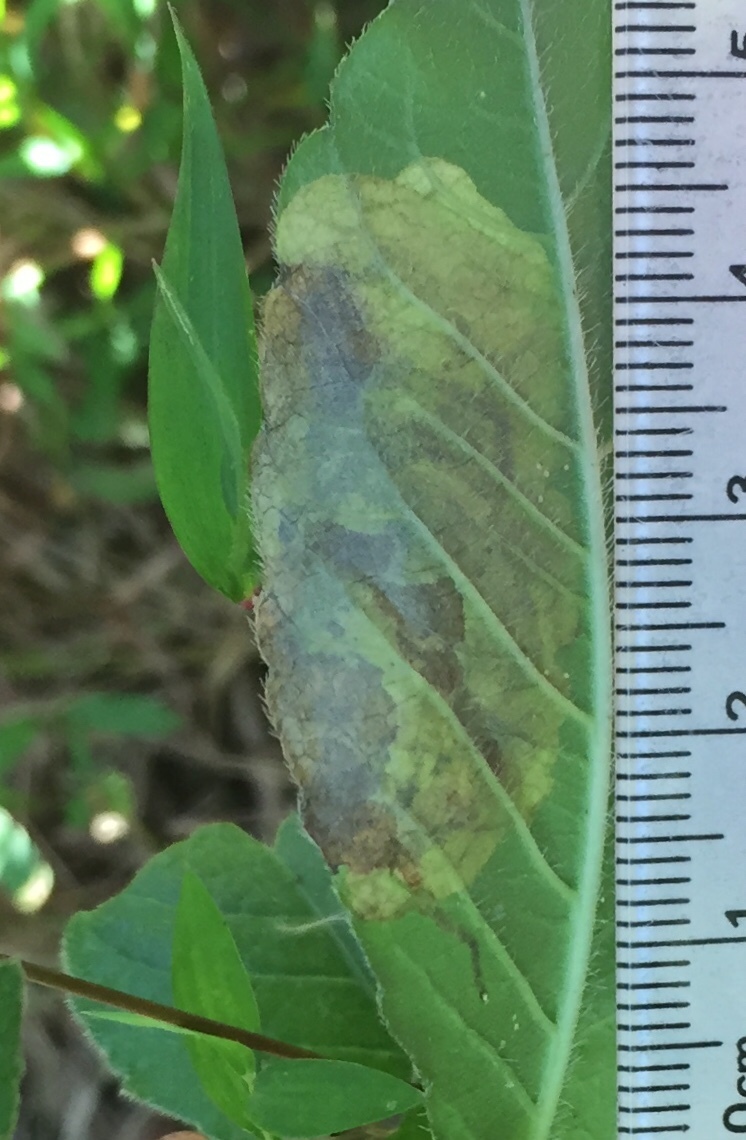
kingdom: Animalia
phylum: Arthropoda
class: Insecta
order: Diptera
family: Agromyzidae
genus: Nemorimyza
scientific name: Nemorimyza posticata
